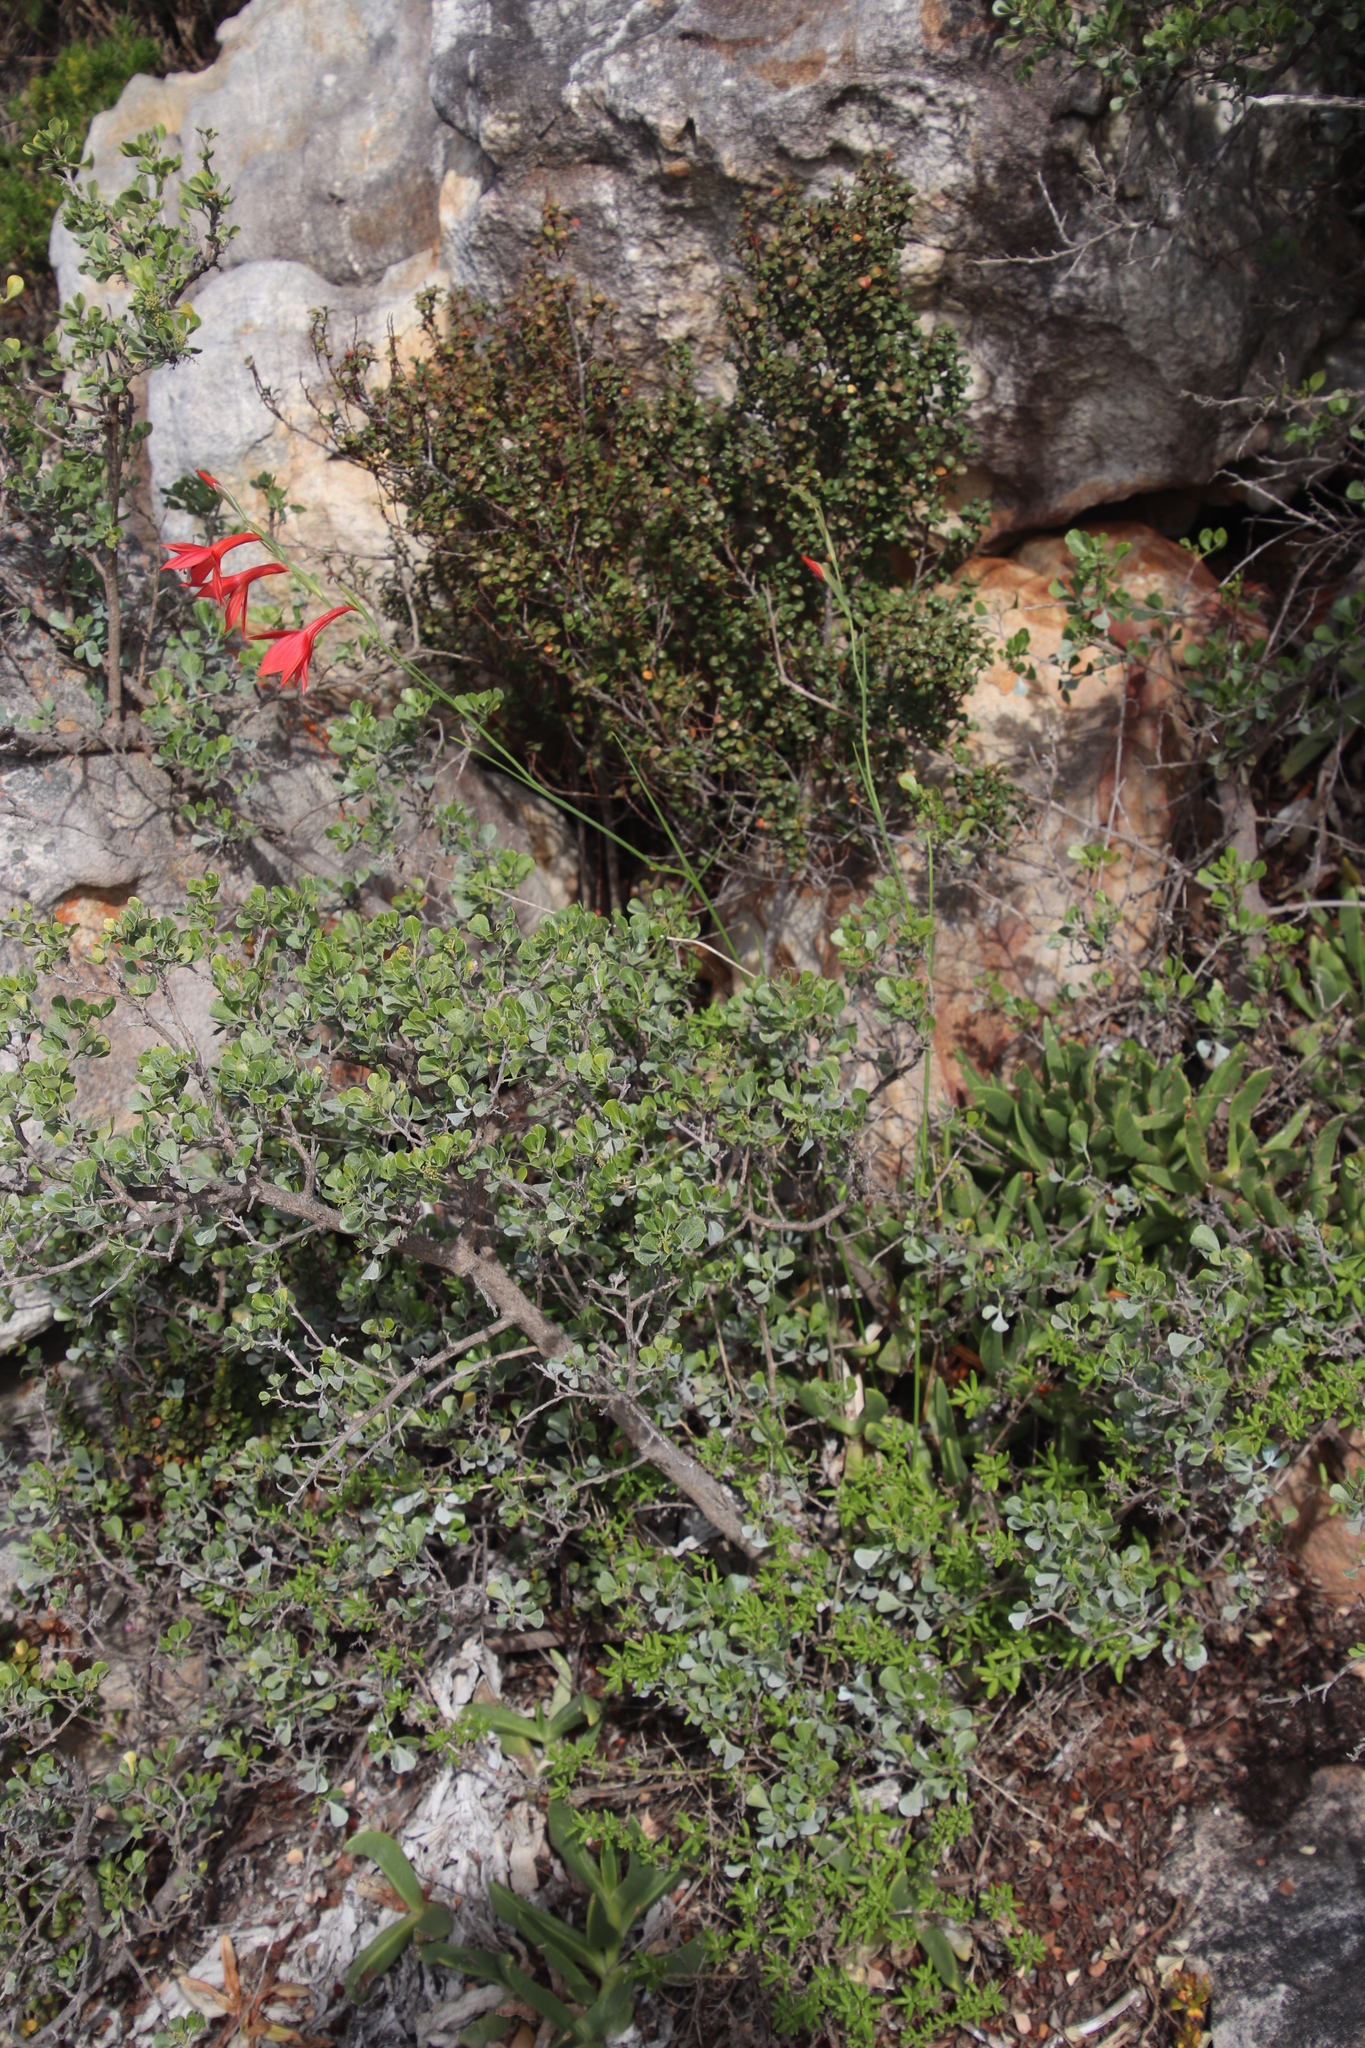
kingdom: Plantae
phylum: Tracheophyta
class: Liliopsida
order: Asparagales
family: Iridaceae
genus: Gladiolus
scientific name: Gladiolus priorii
